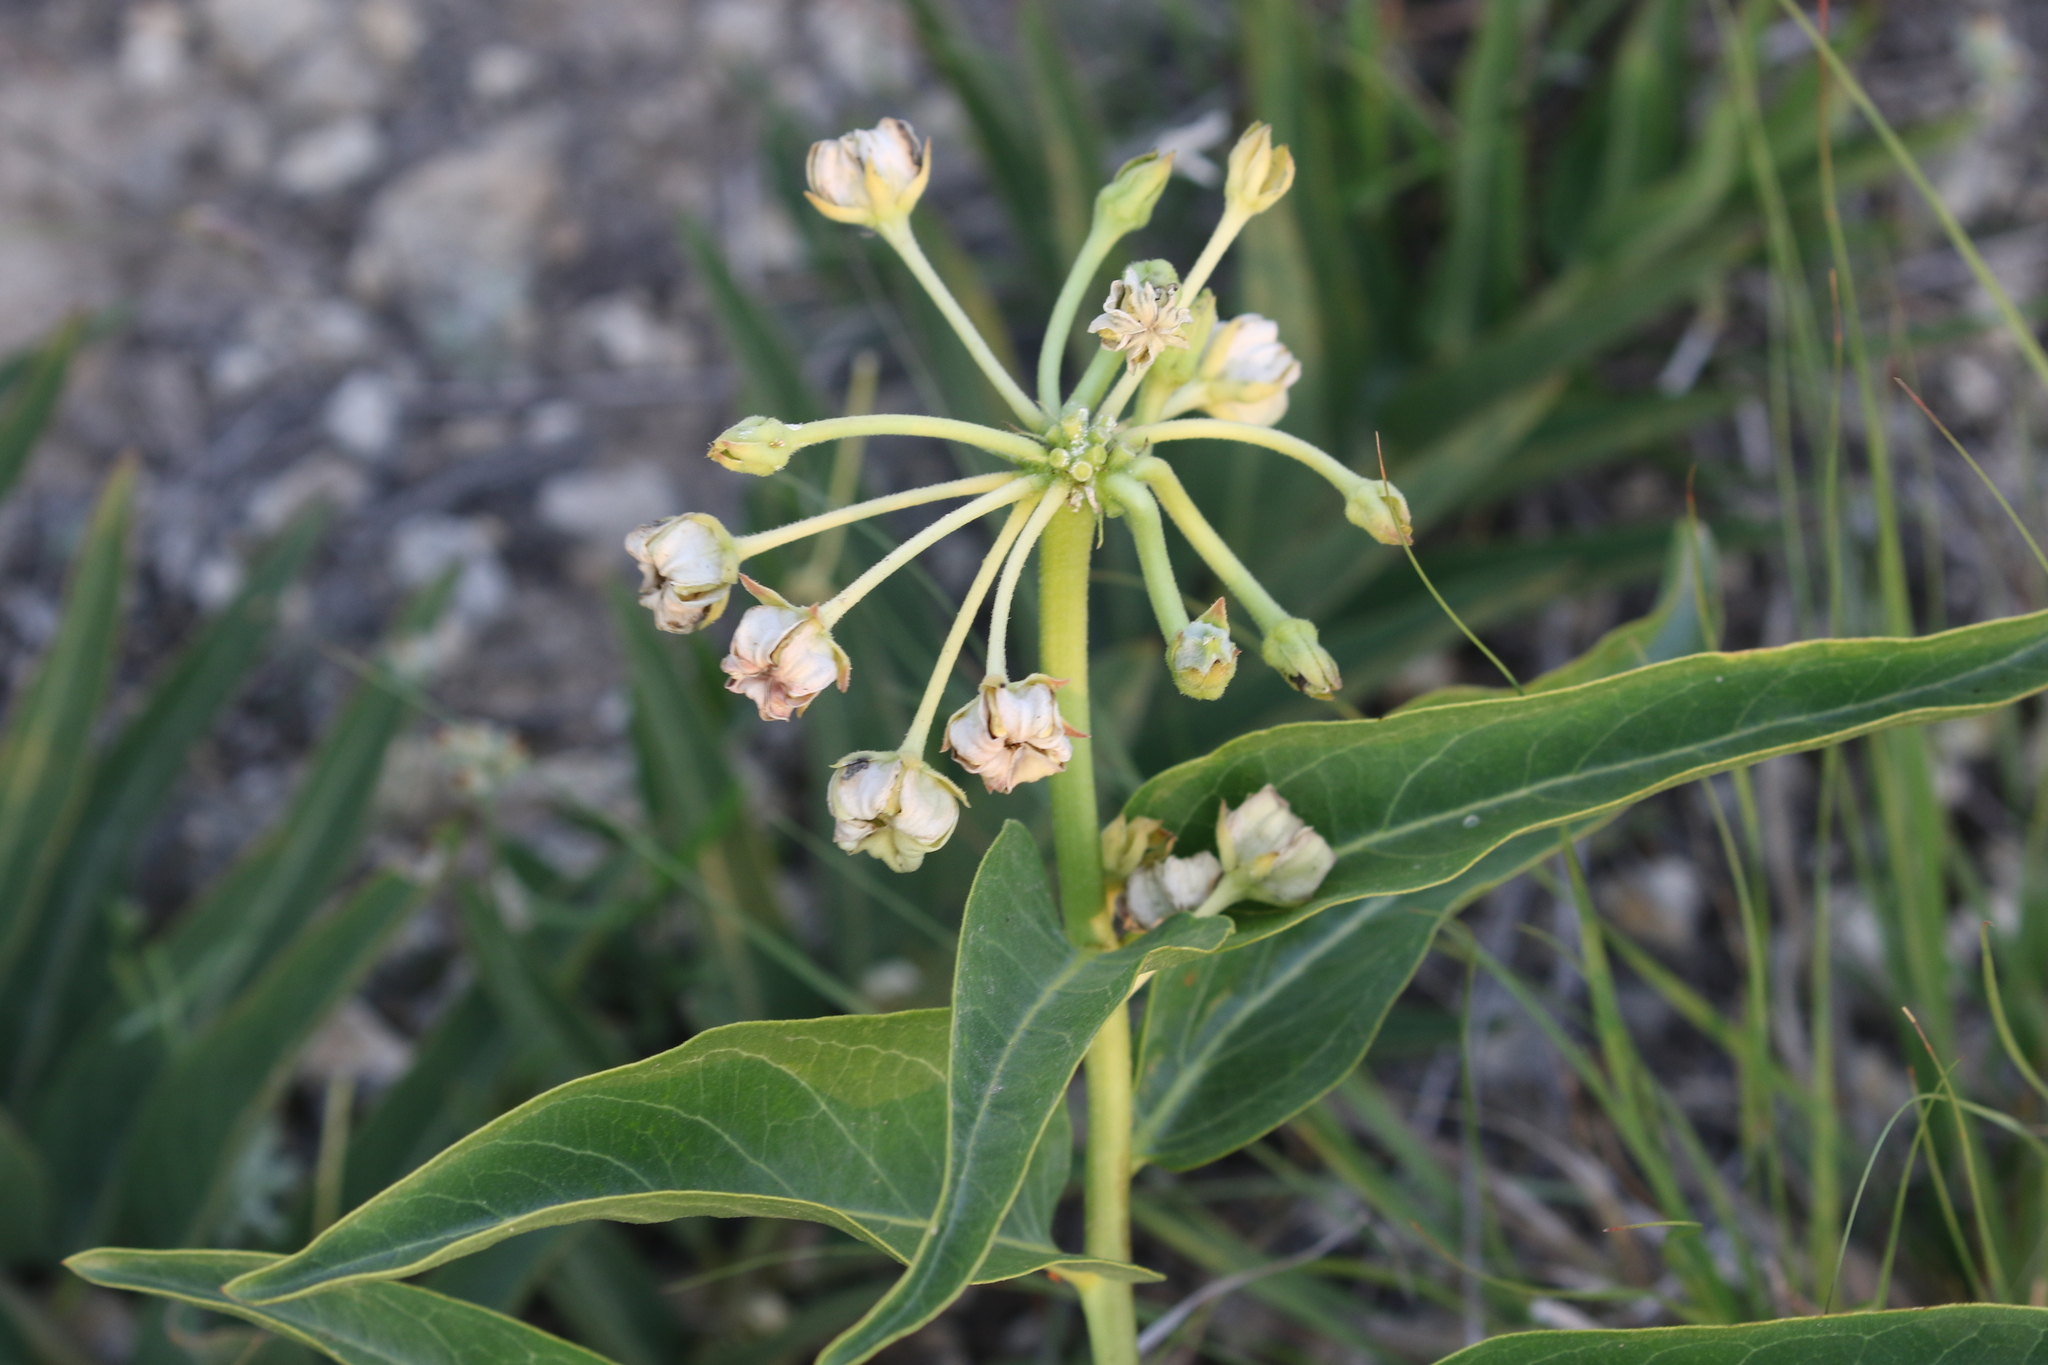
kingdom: Plantae
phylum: Tracheophyta
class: Magnoliopsida
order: Gentianales
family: Apocynaceae
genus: Asclepias
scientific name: Asclepias asperula
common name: Antelope horns
